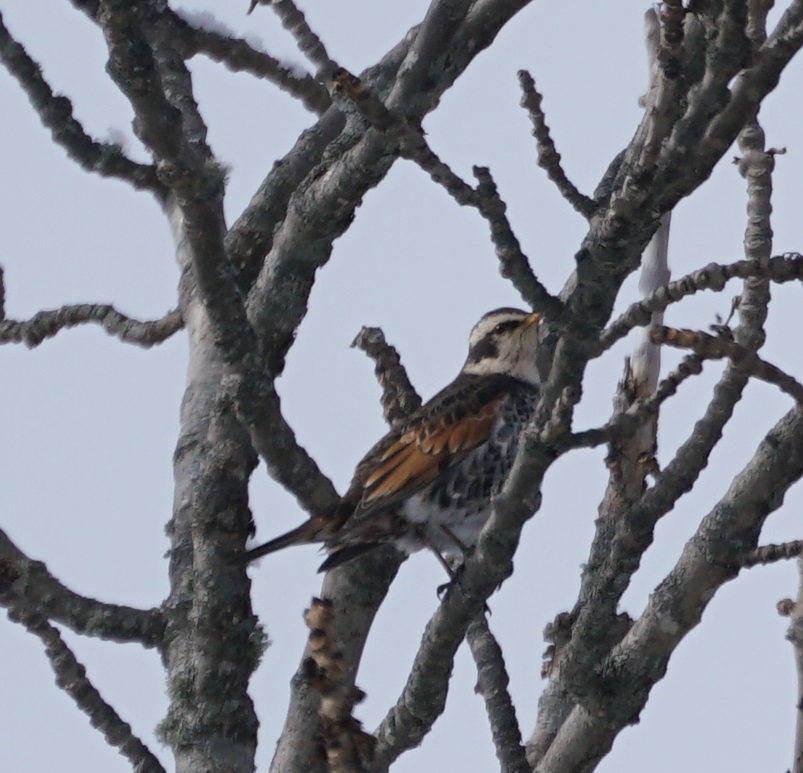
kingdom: Animalia
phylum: Chordata
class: Aves
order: Passeriformes
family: Turdidae
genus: Turdus
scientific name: Turdus eunomus
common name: Dusky thrush
